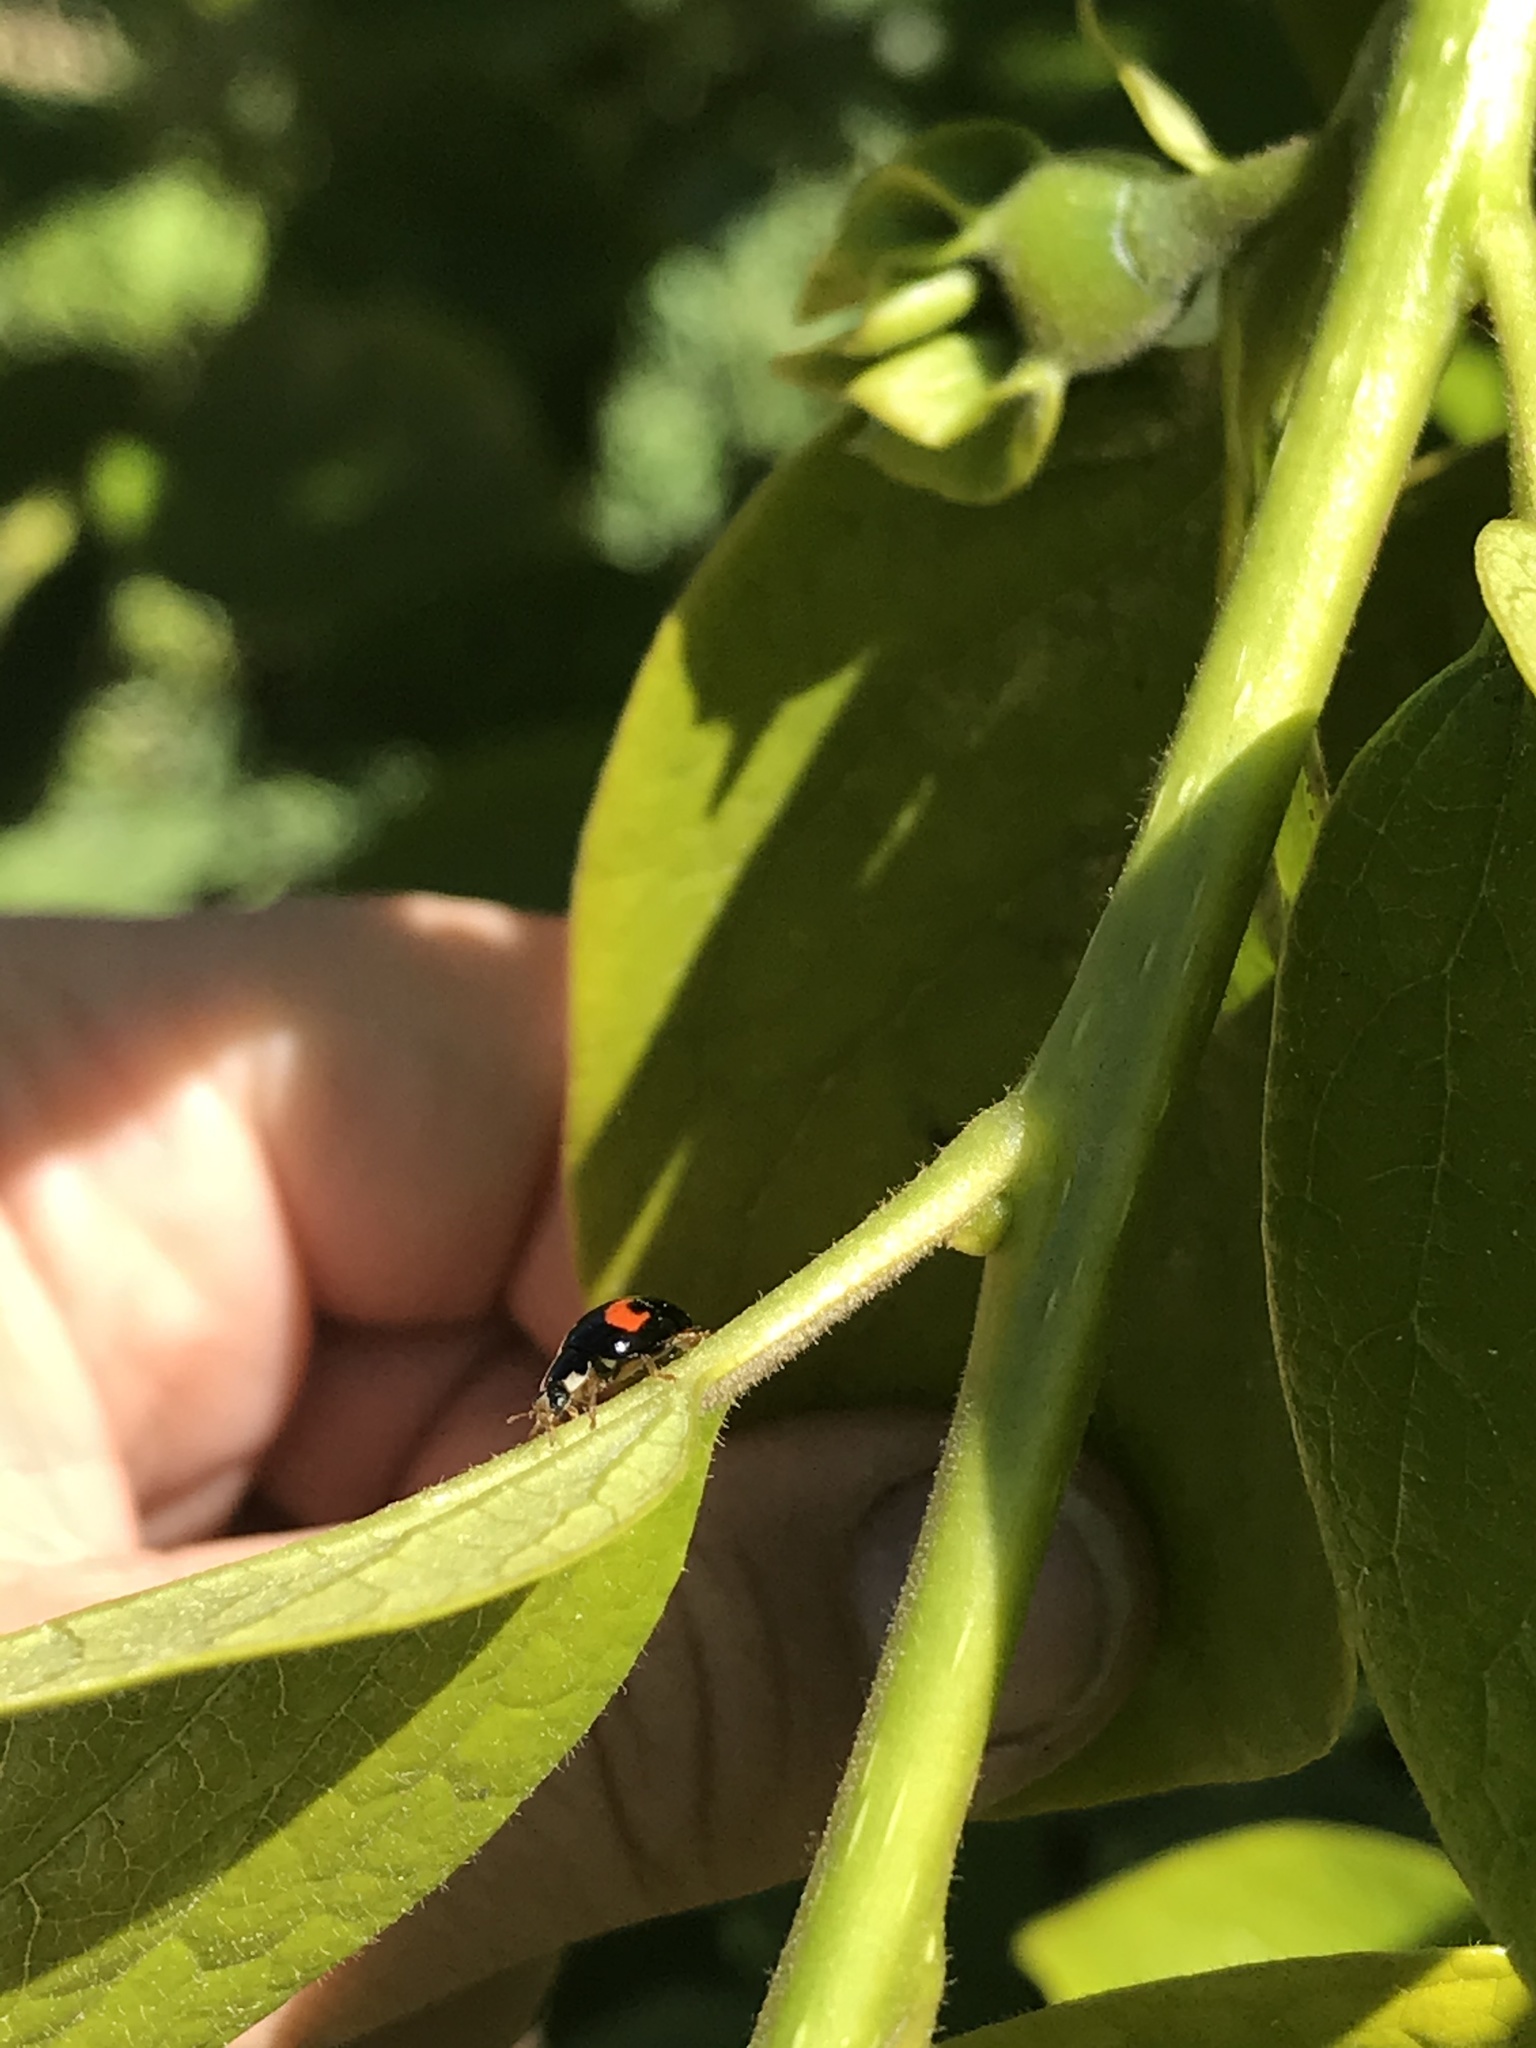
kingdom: Animalia
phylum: Arthropoda
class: Insecta
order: Coleoptera
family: Coccinellidae
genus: Harmonia
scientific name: Harmonia axyridis
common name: Harlequin ladybird
